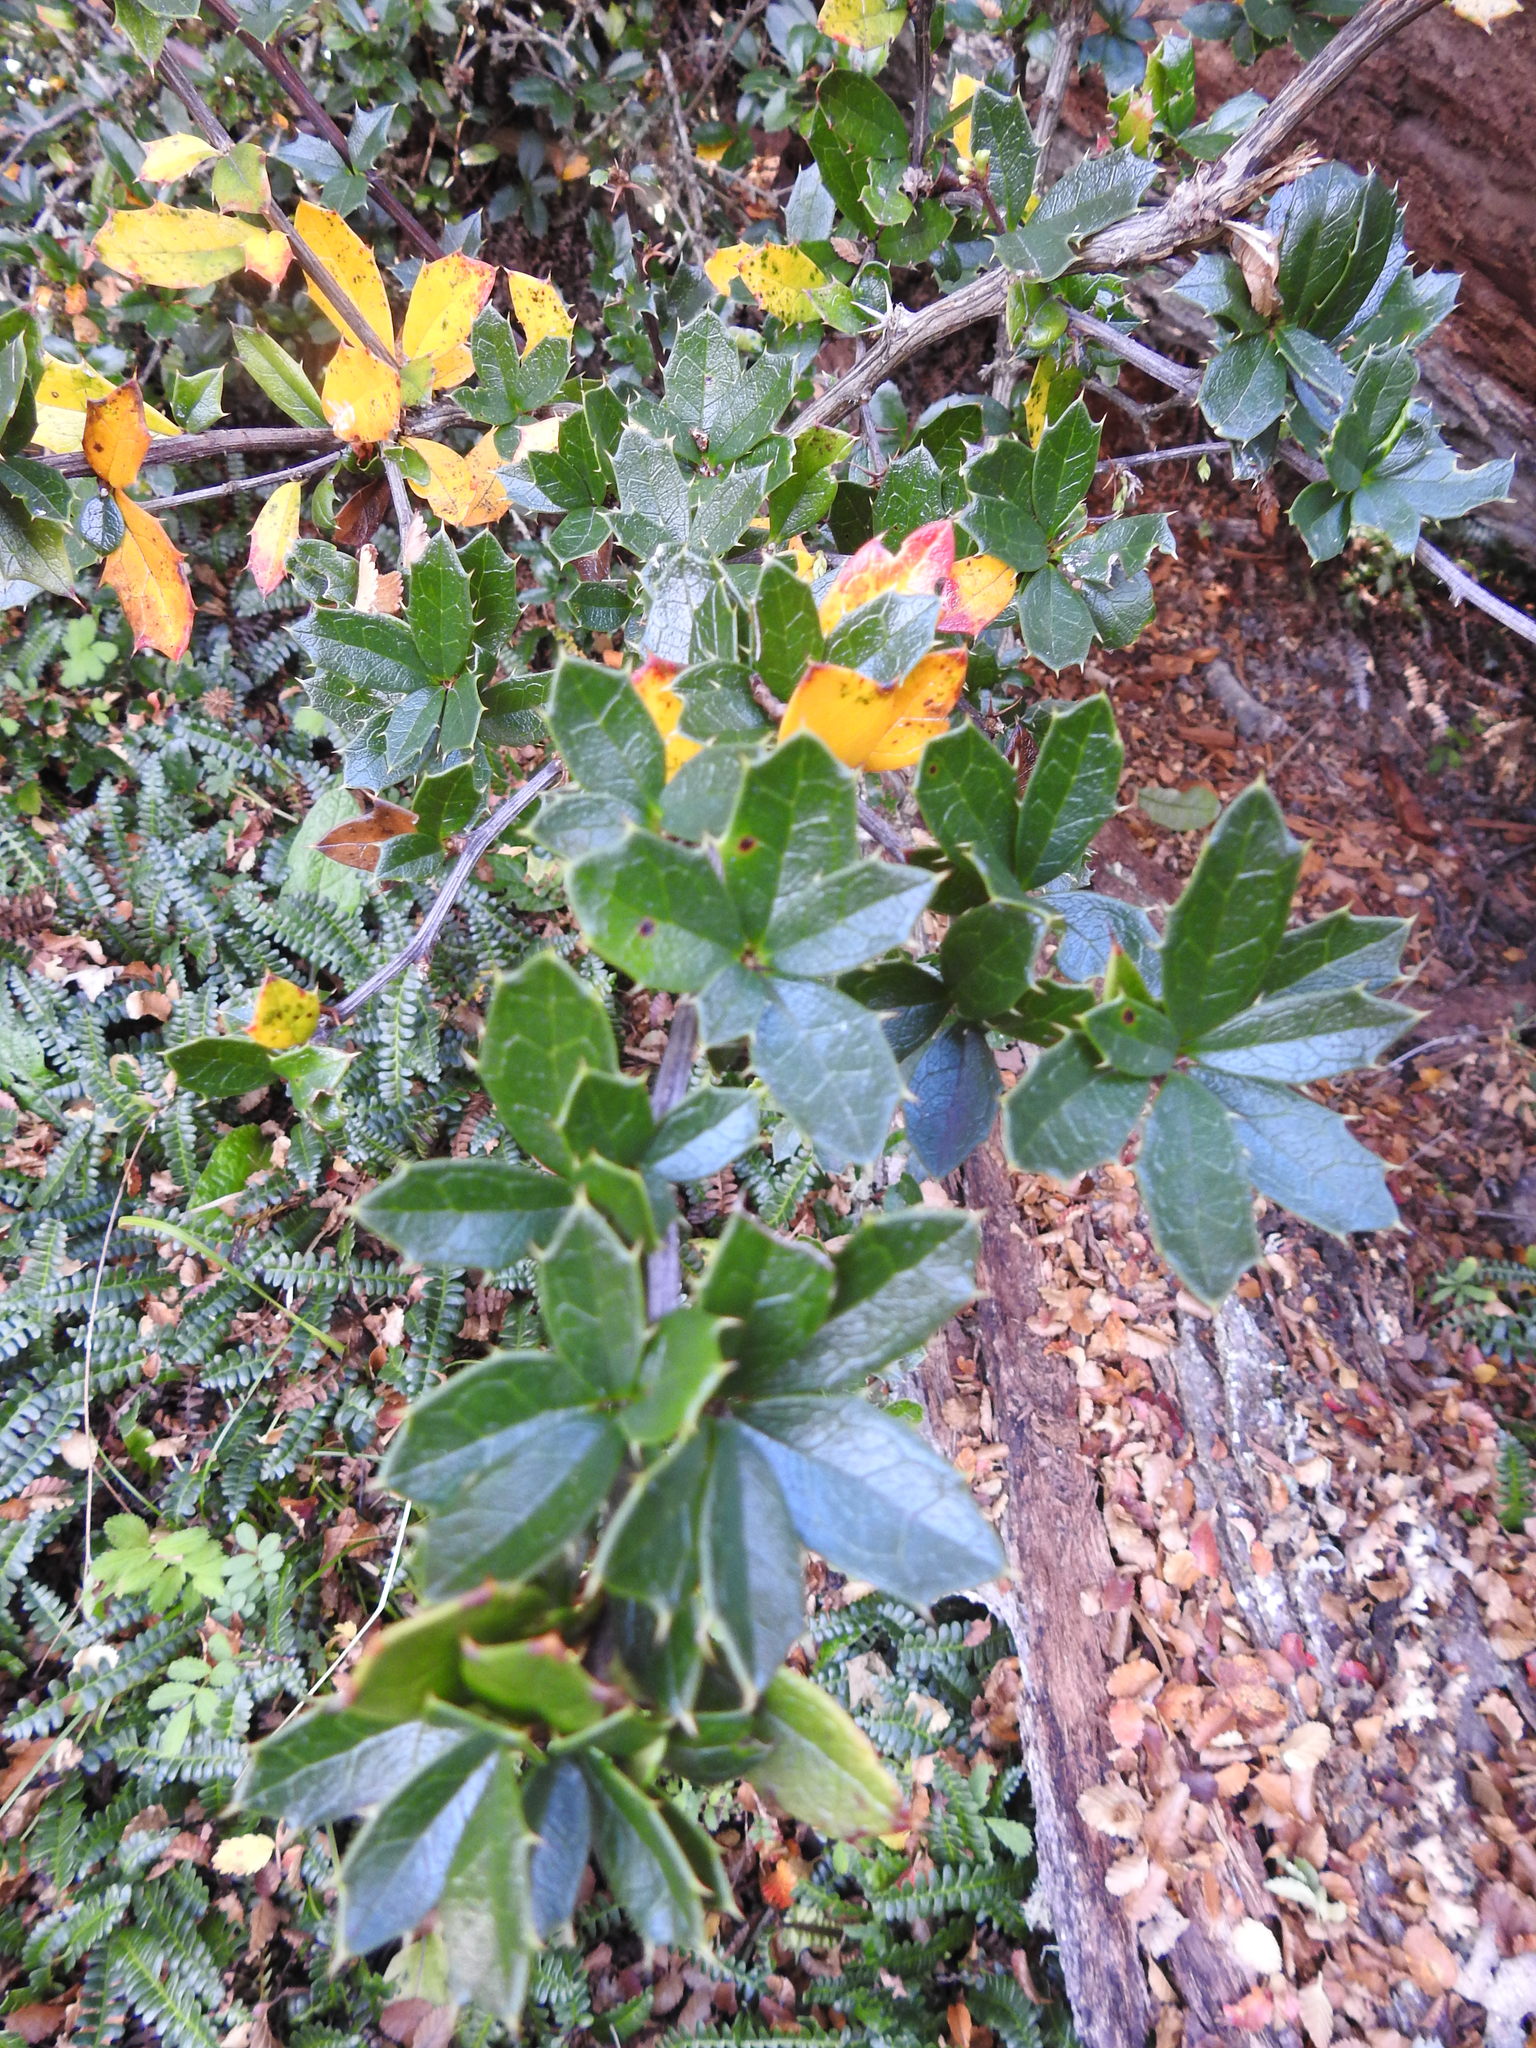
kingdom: Plantae
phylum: Tracheophyta
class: Magnoliopsida
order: Ranunculales
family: Berberidaceae
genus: Berberis
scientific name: Berberis ilicifolia
